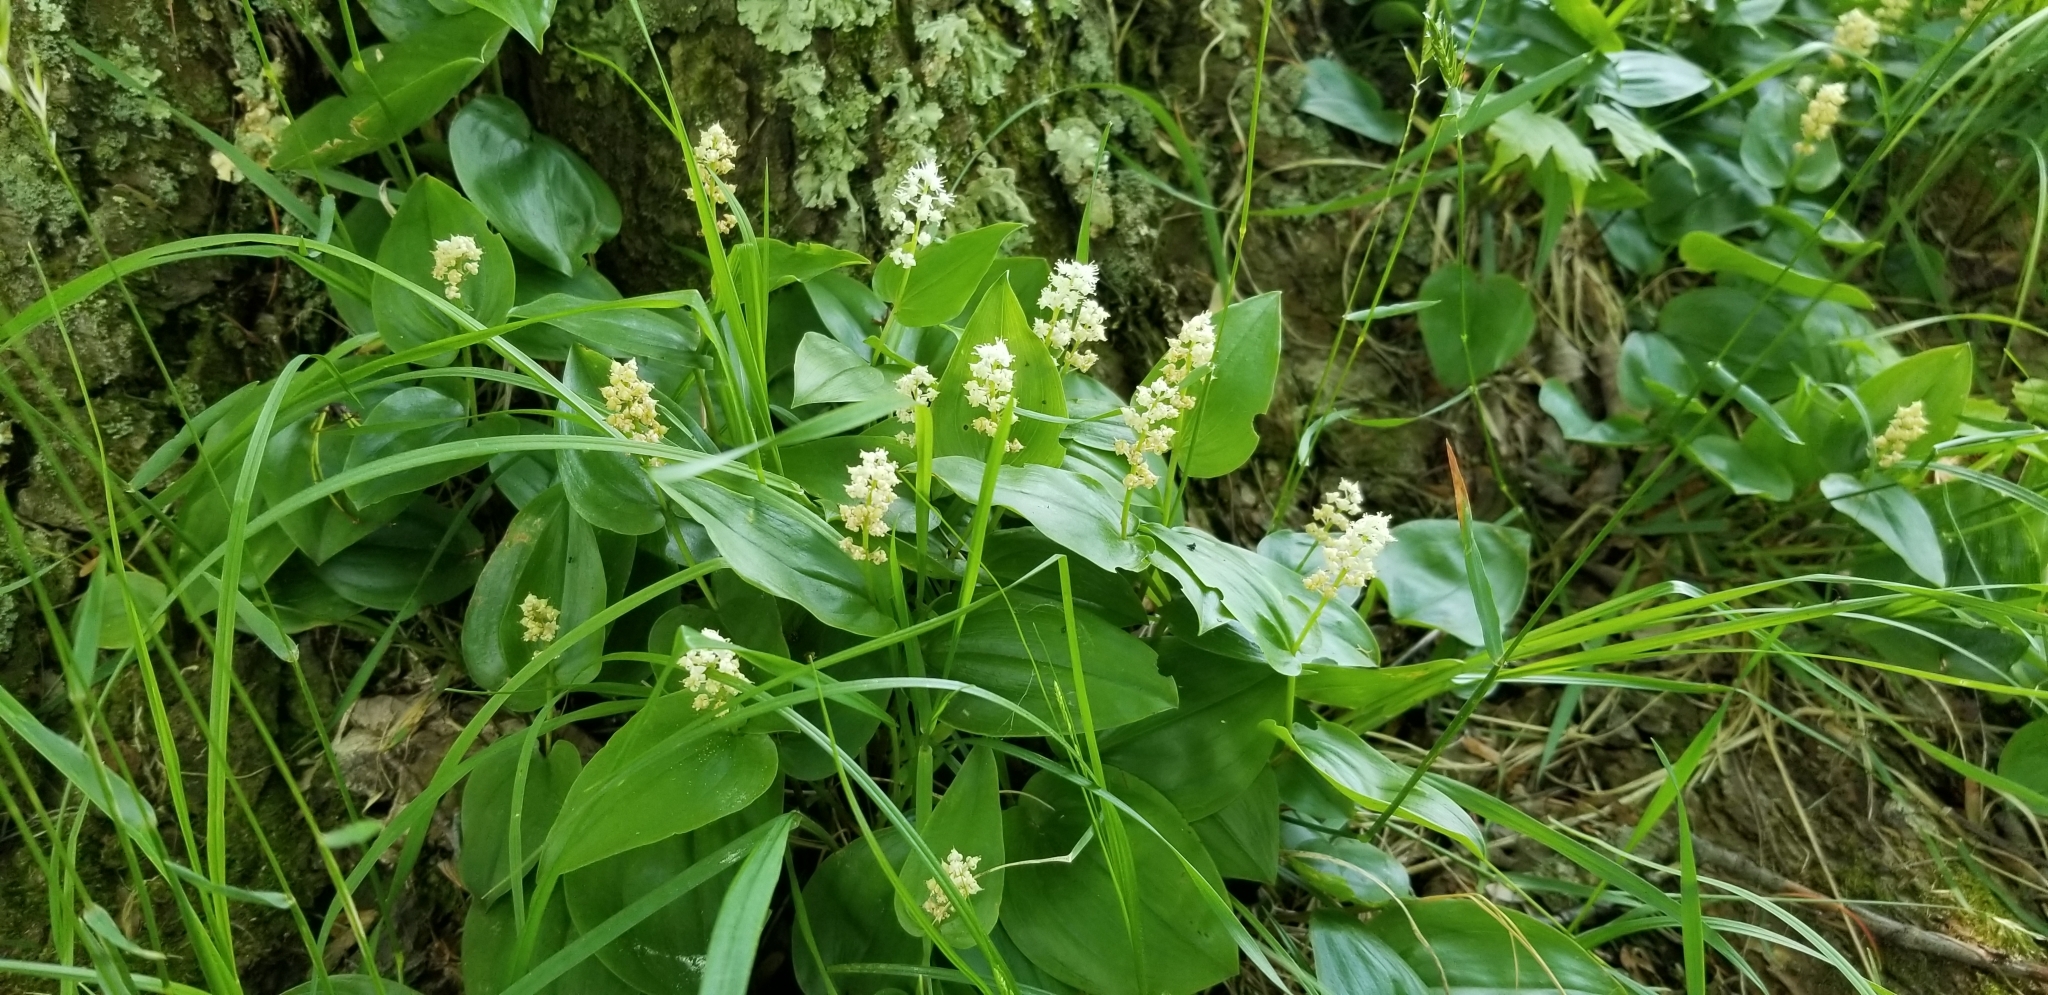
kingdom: Plantae
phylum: Tracheophyta
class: Liliopsida
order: Asparagales
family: Asparagaceae
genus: Maianthemum
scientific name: Maianthemum canadense
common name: False lily-of-the-valley
